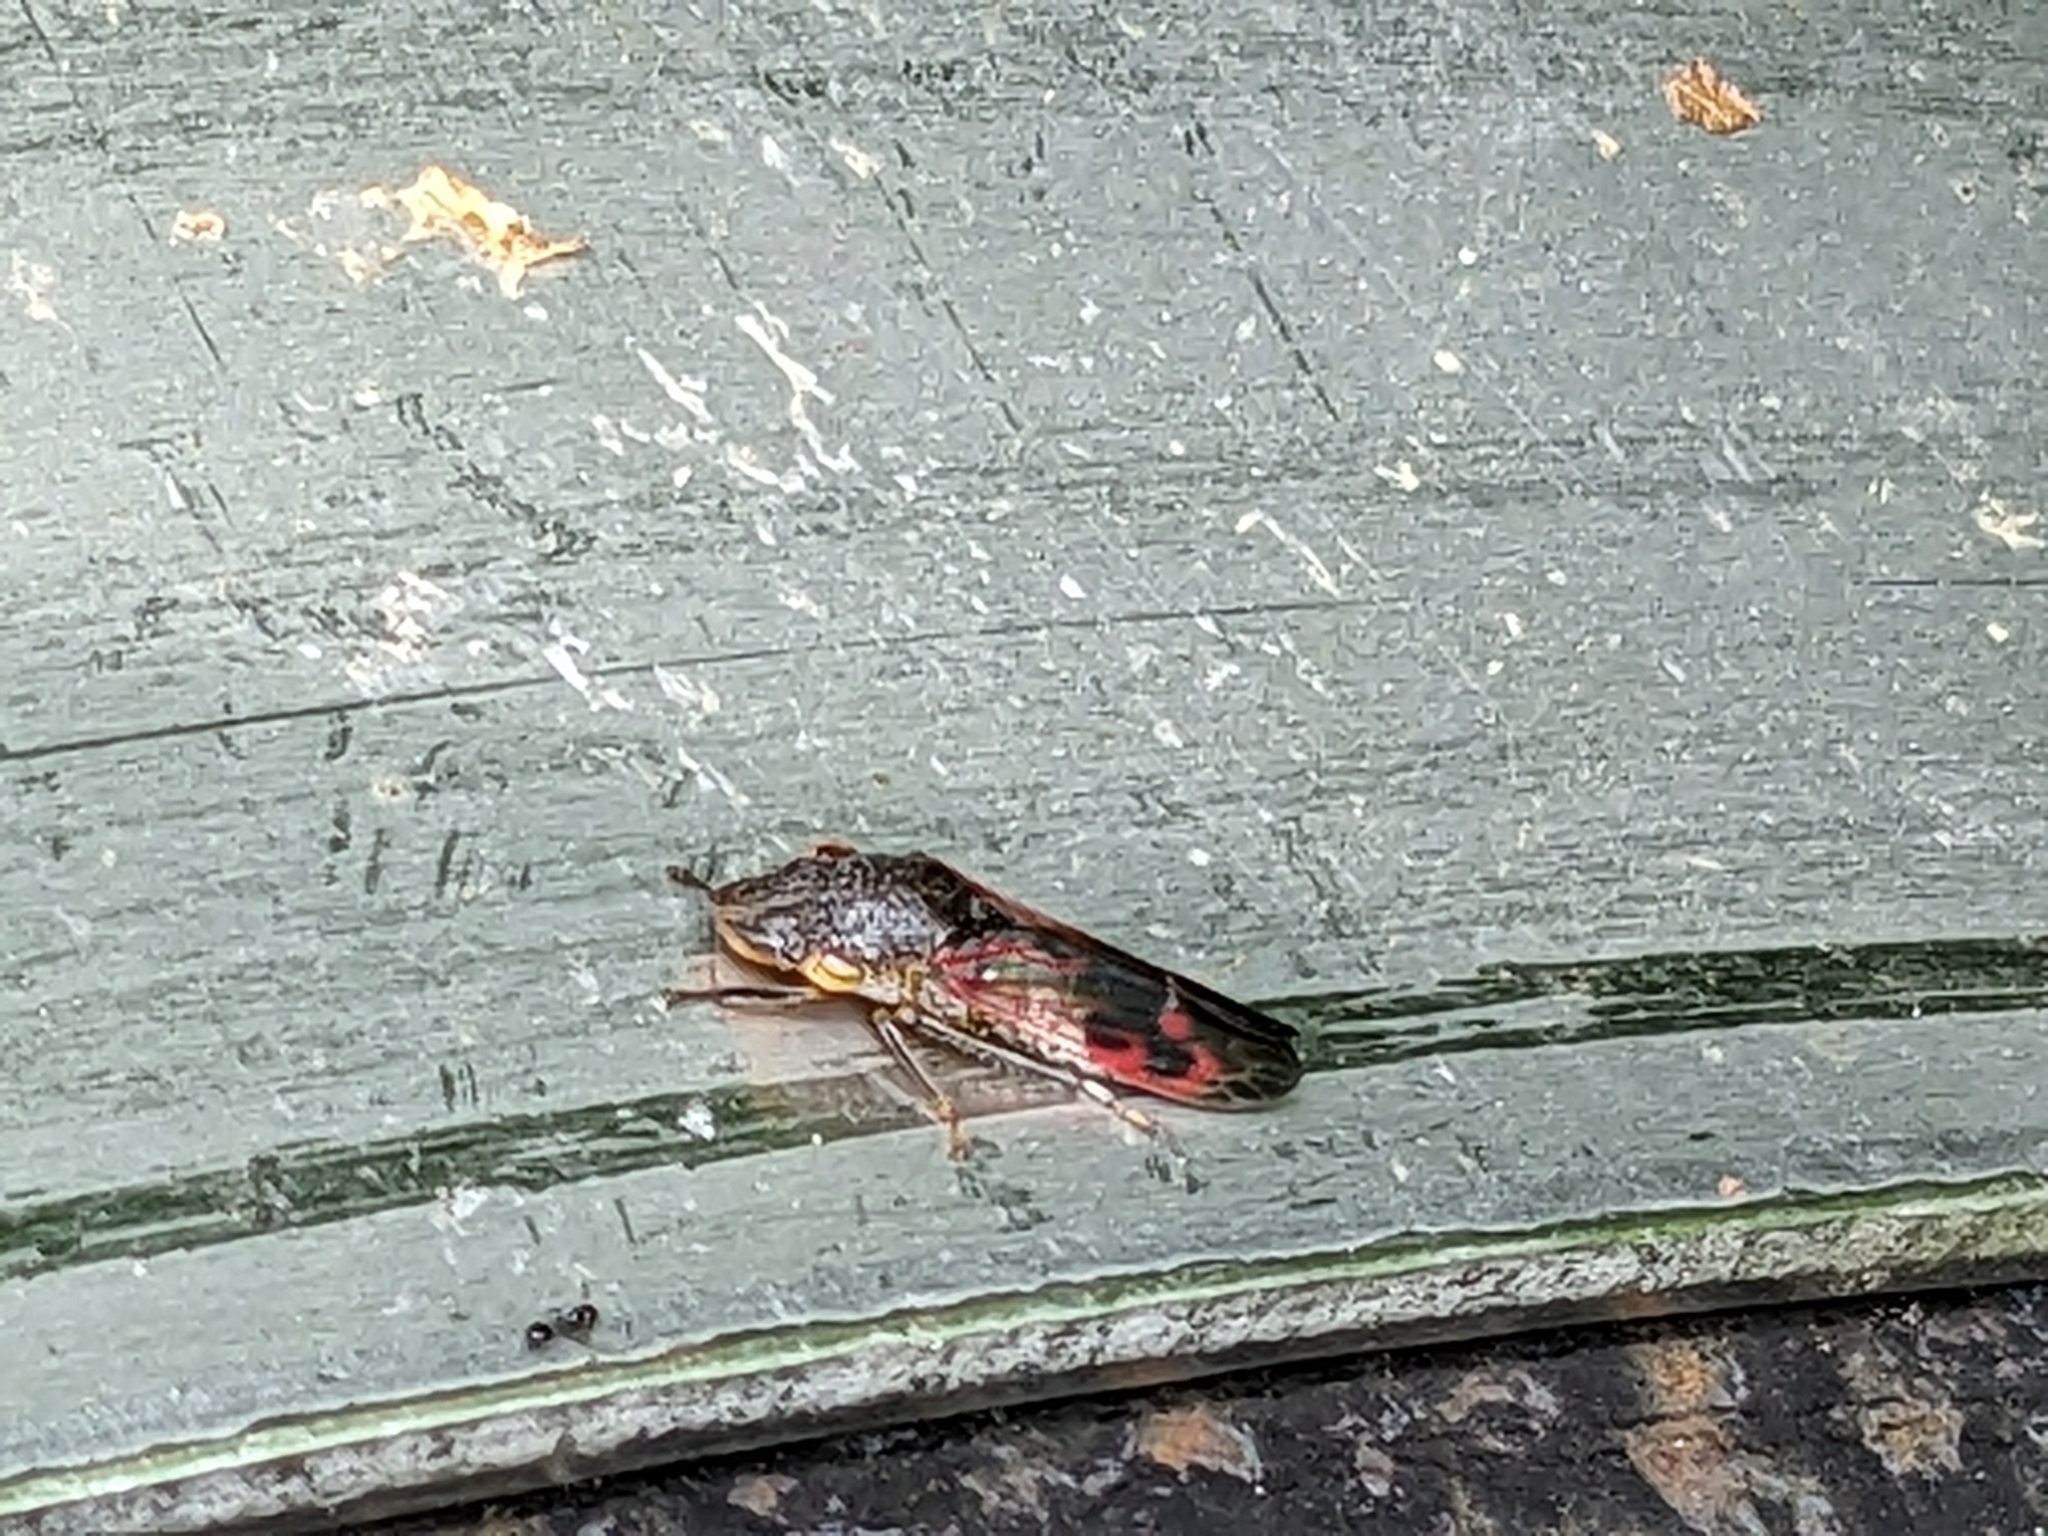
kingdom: Animalia
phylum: Arthropoda
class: Insecta
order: Hemiptera
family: Cicadellidae
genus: Homalodisca
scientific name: Homalodisca vitripennis
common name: Glassy-winged sharpshooter
